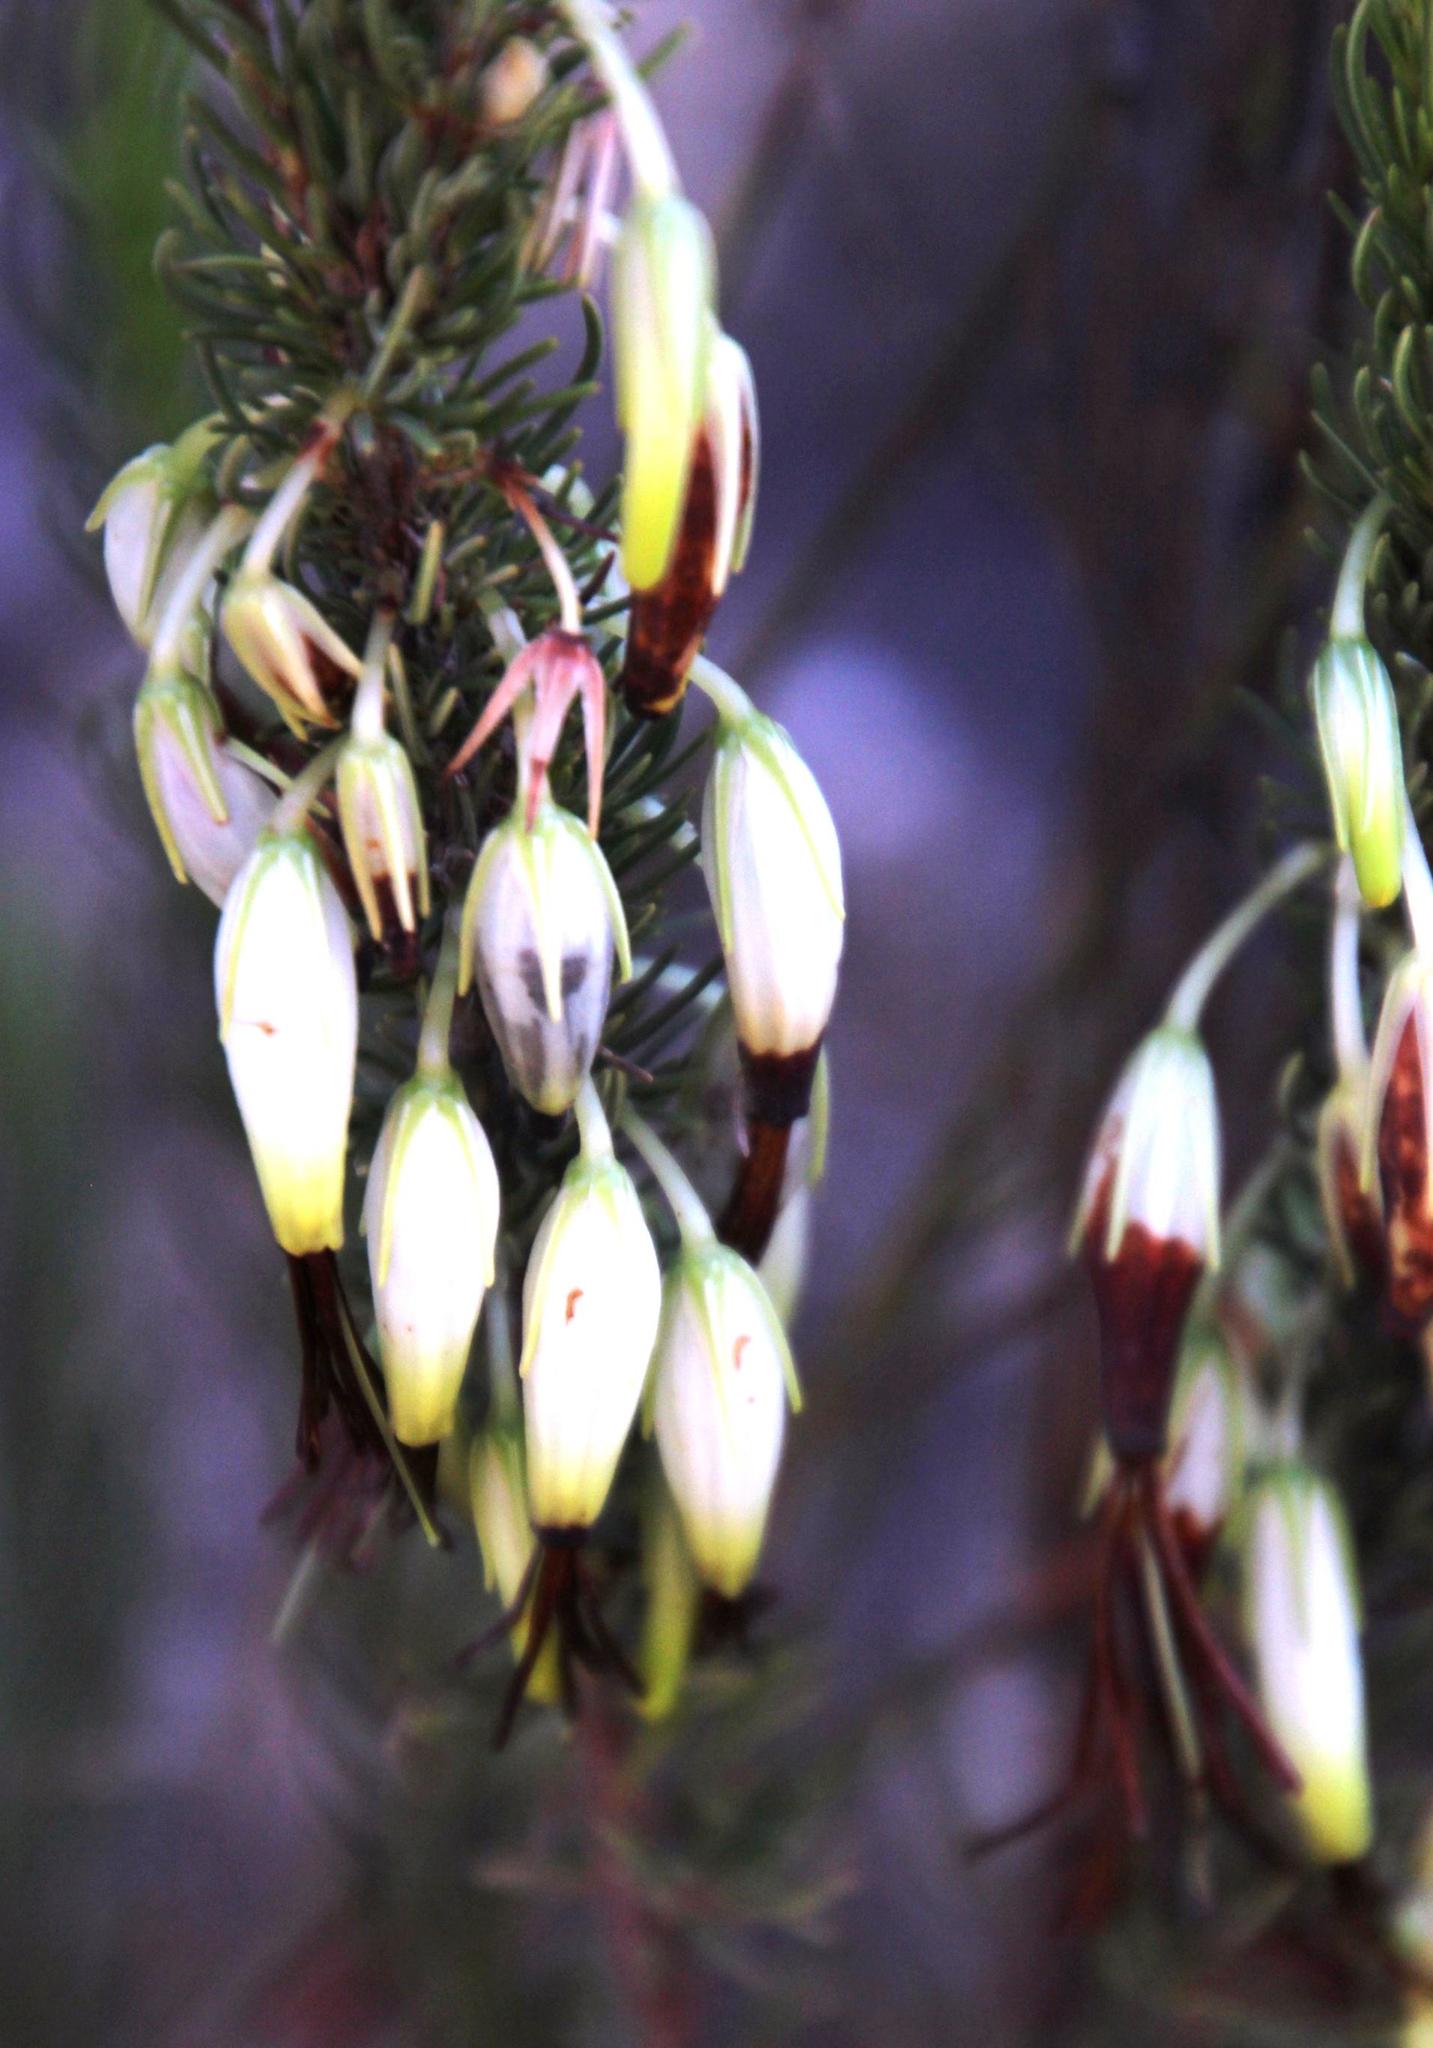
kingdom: Plantae
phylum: Tracheophyta
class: Magnoliopsida
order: Ericales
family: Ericaceae
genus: Erica
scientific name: Erica plukenetii
